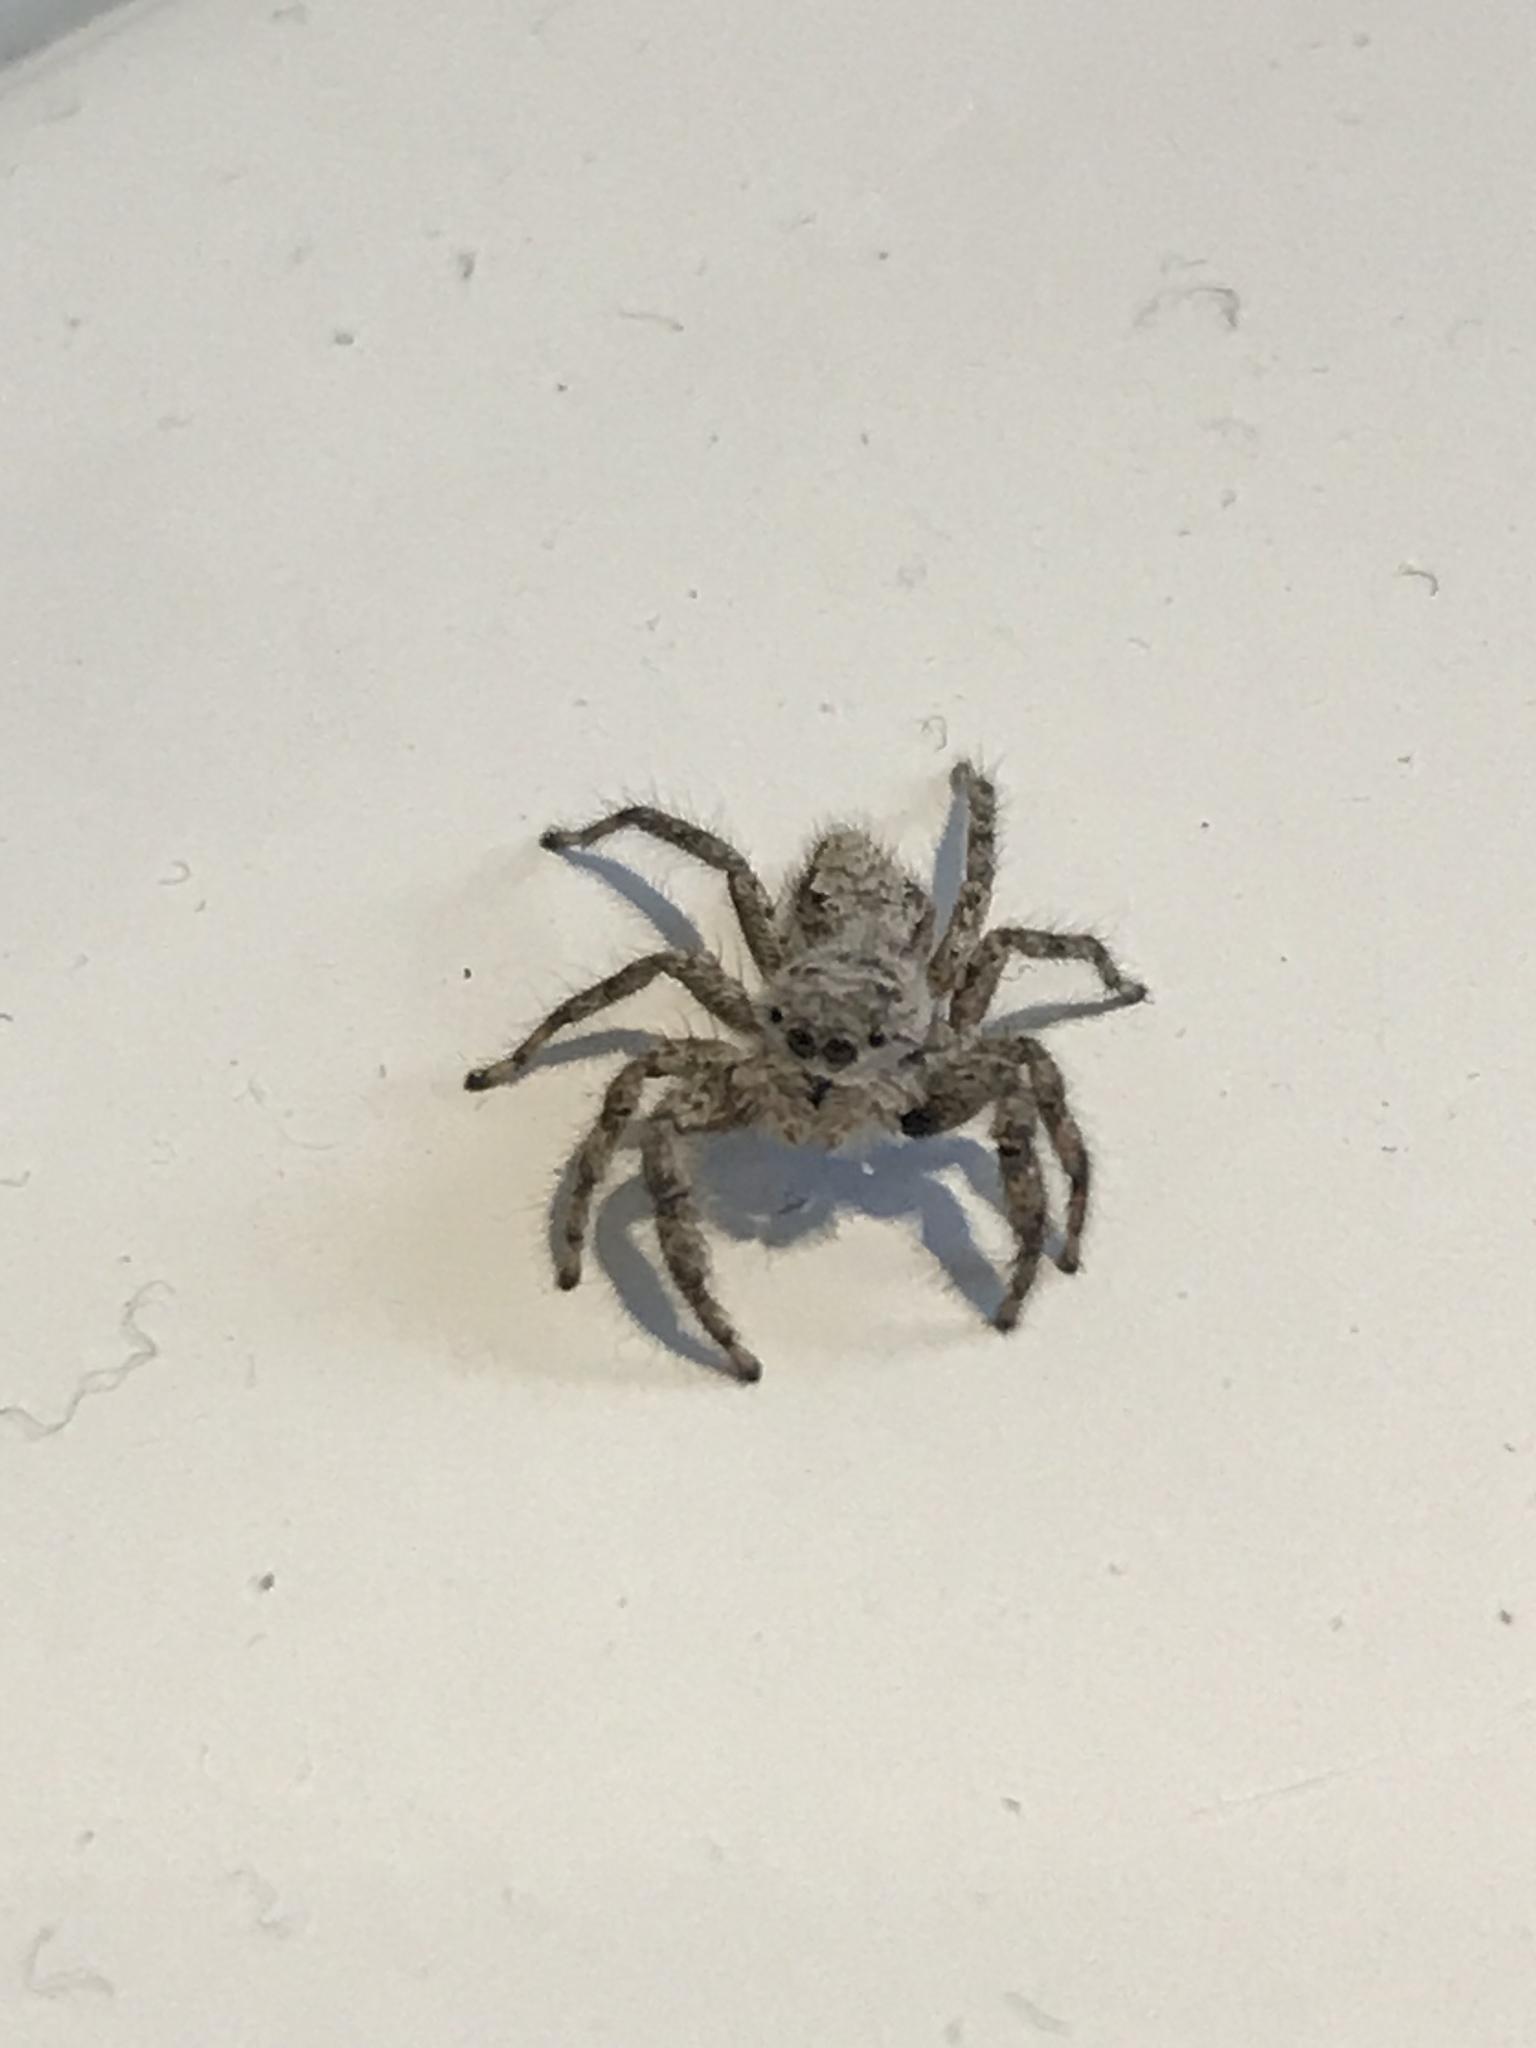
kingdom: Animalia
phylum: Arthropoda
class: Arachnida
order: Araneae
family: Salticidae
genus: Platycryptus
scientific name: Platycryptus undatus
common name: Tan jumping spider
